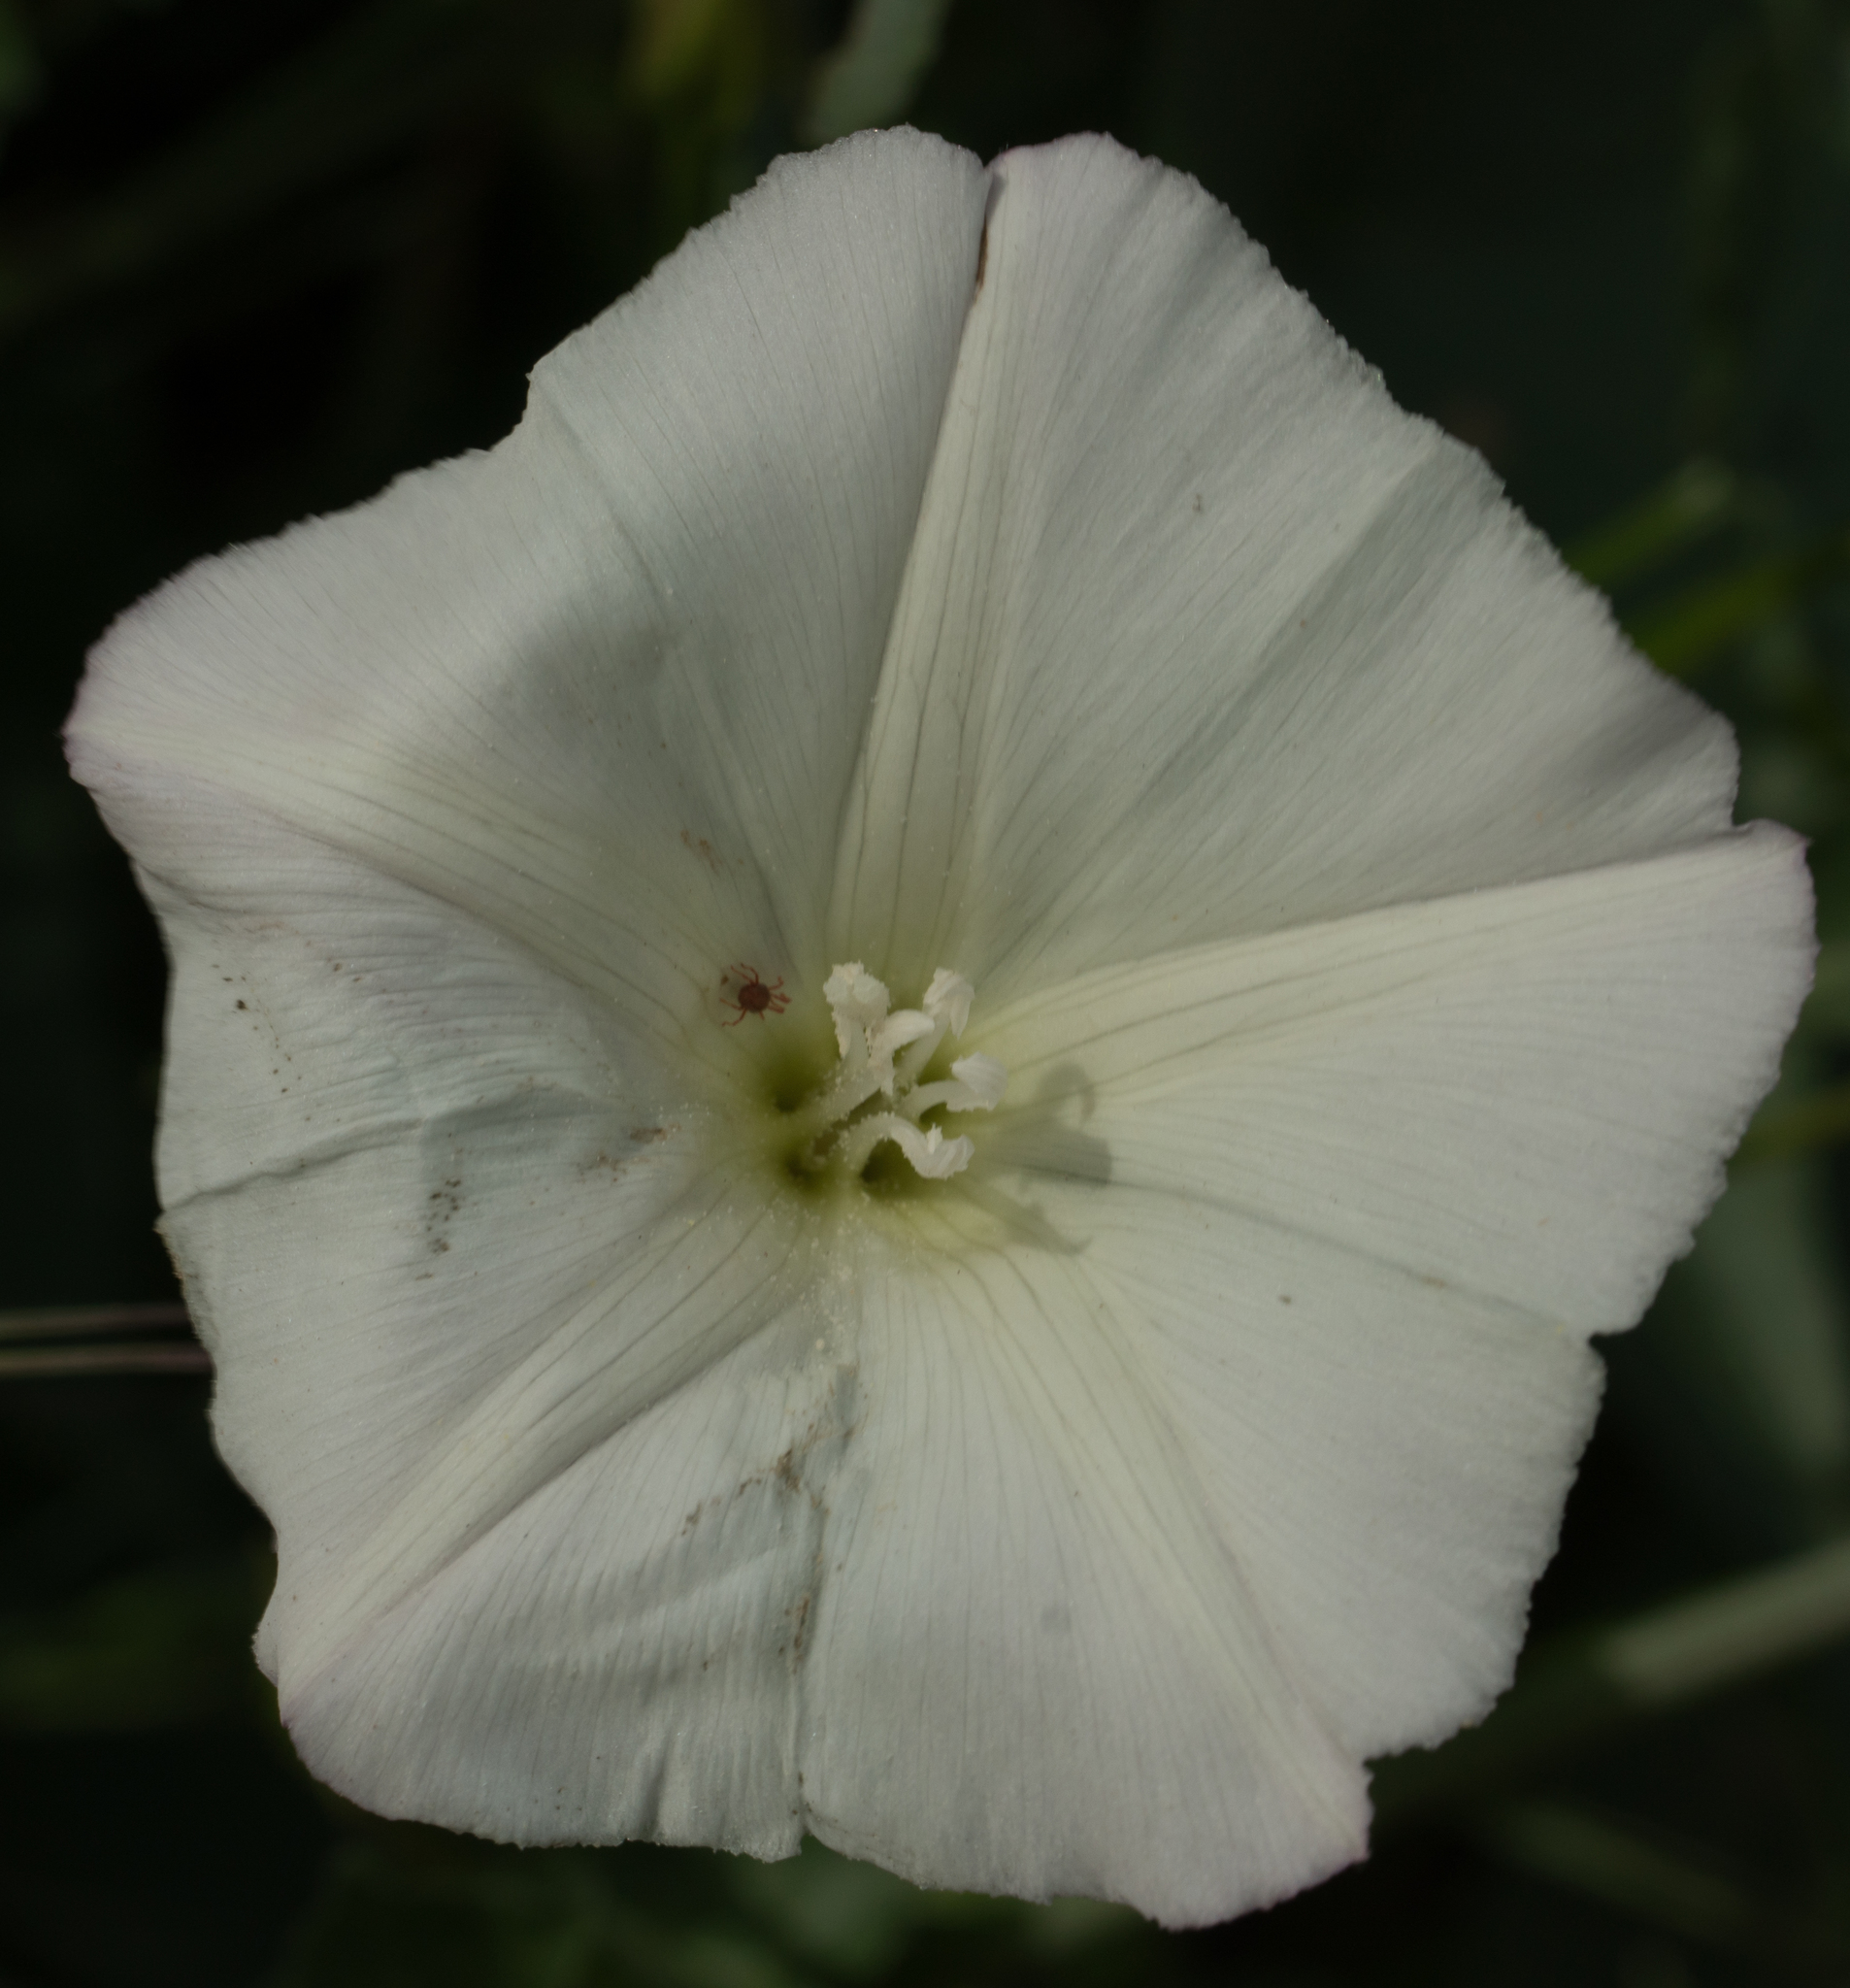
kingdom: Plantae
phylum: Tracheophyta
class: Magnoliopsida
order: Solanales
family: Convolvulaceae
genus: Calystegia
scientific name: Calystegia macrostegia
